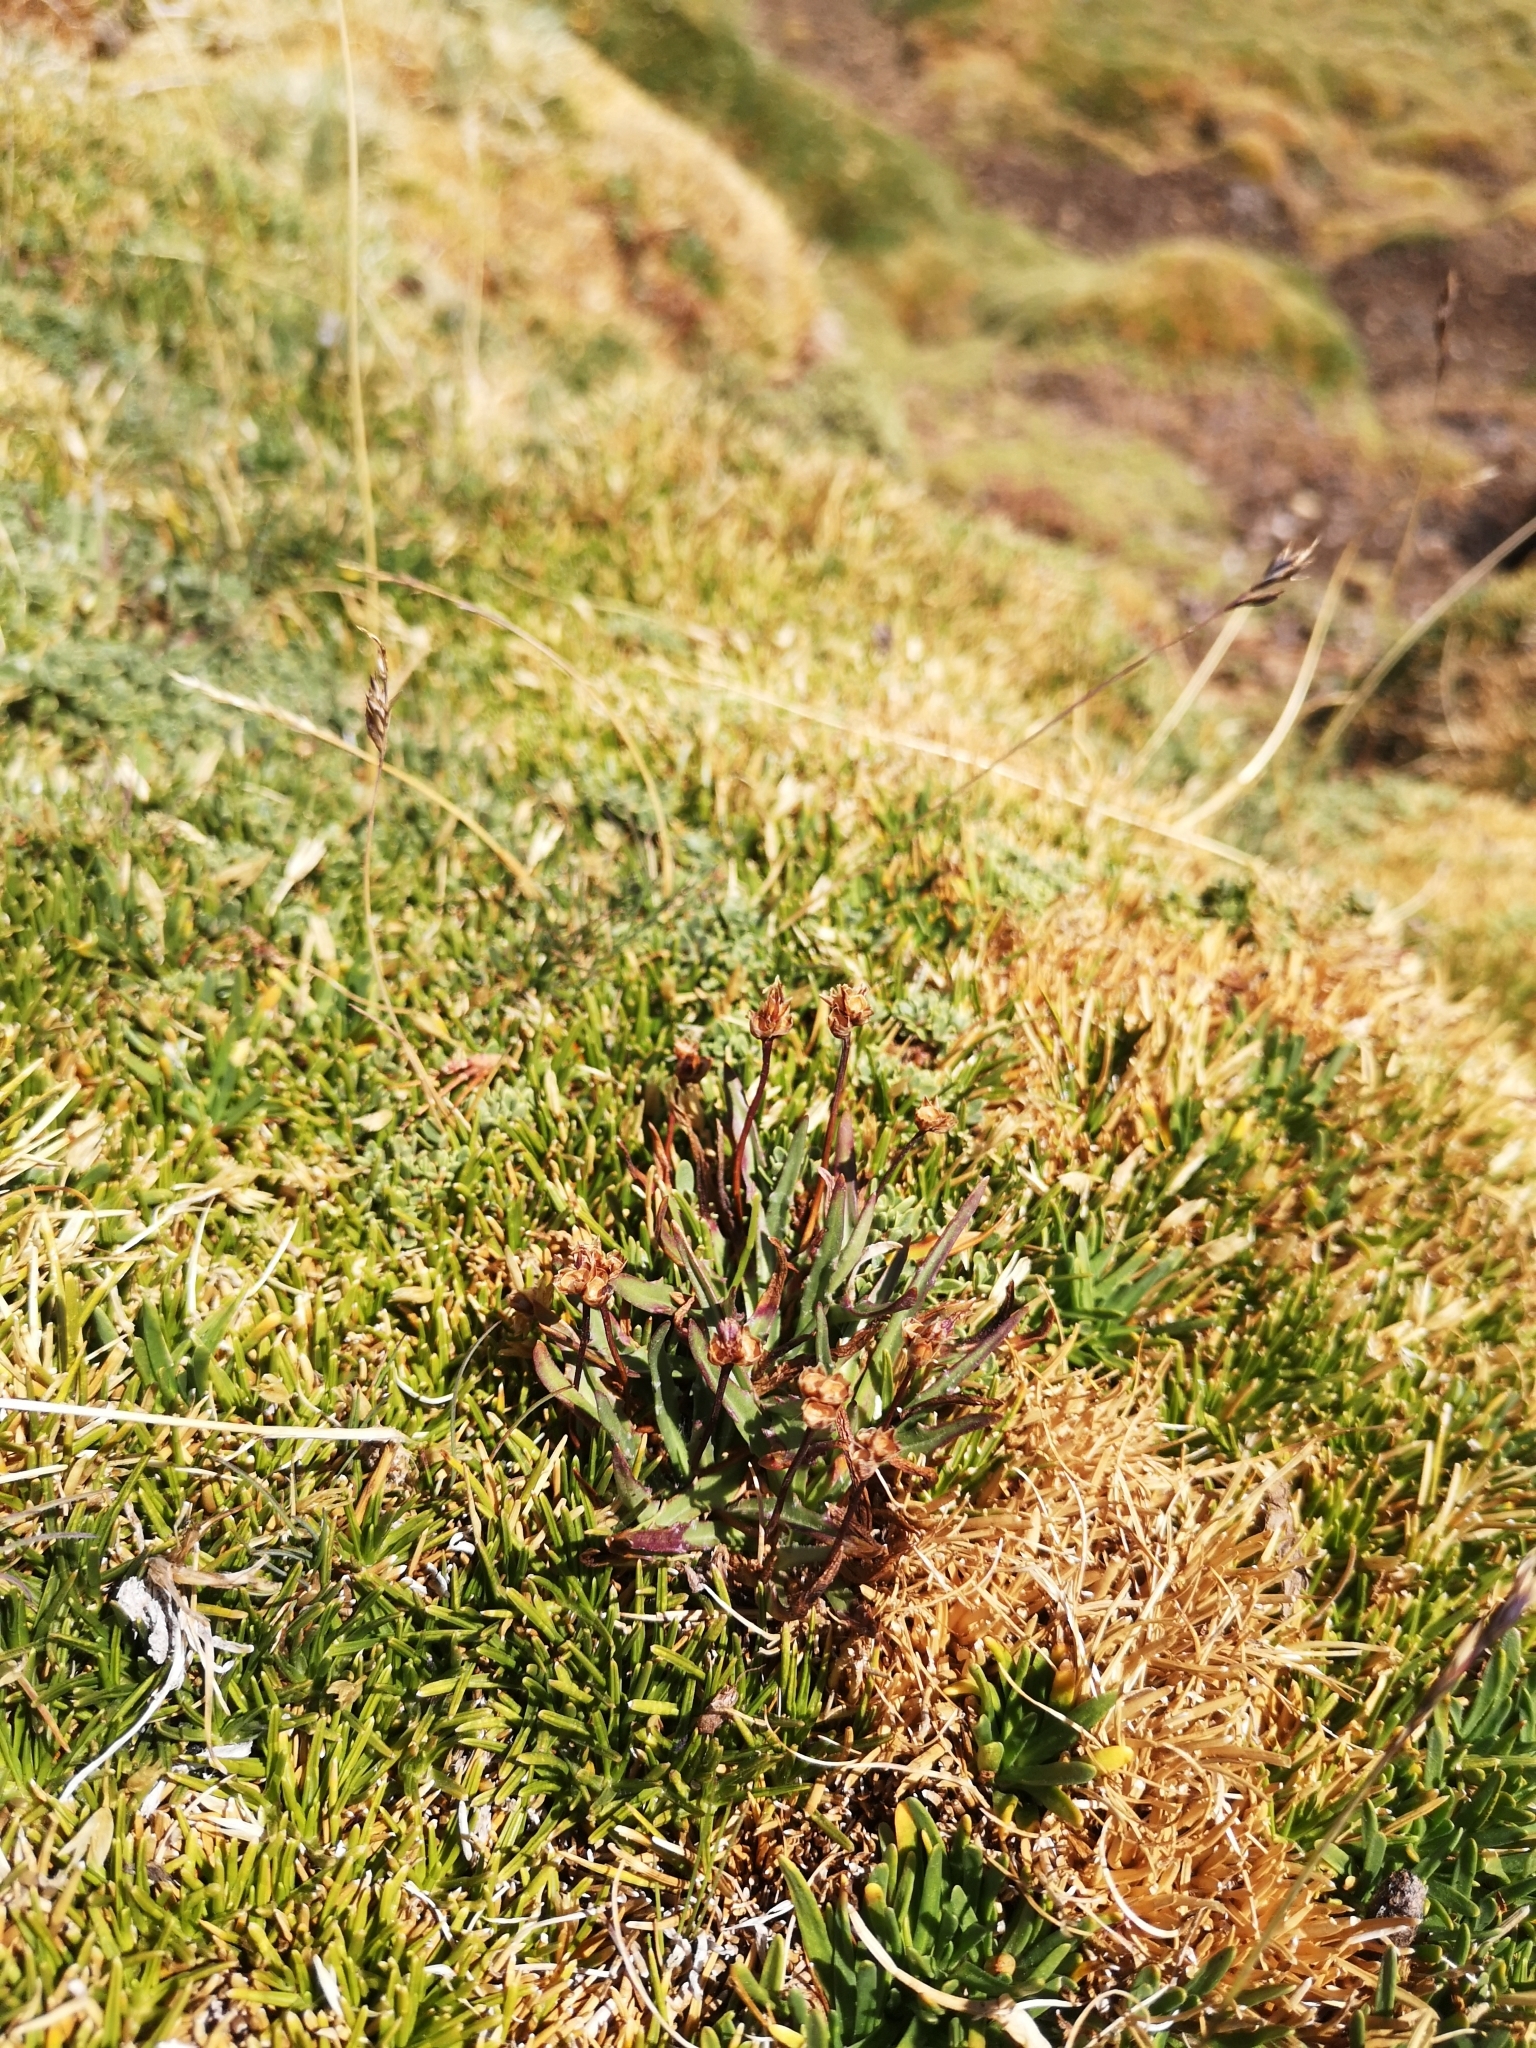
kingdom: Plantae
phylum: Tracheophyta
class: Magnoliopsida
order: Lamiales
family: Plantaginaceae
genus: Plantago
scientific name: Plantago barbata
